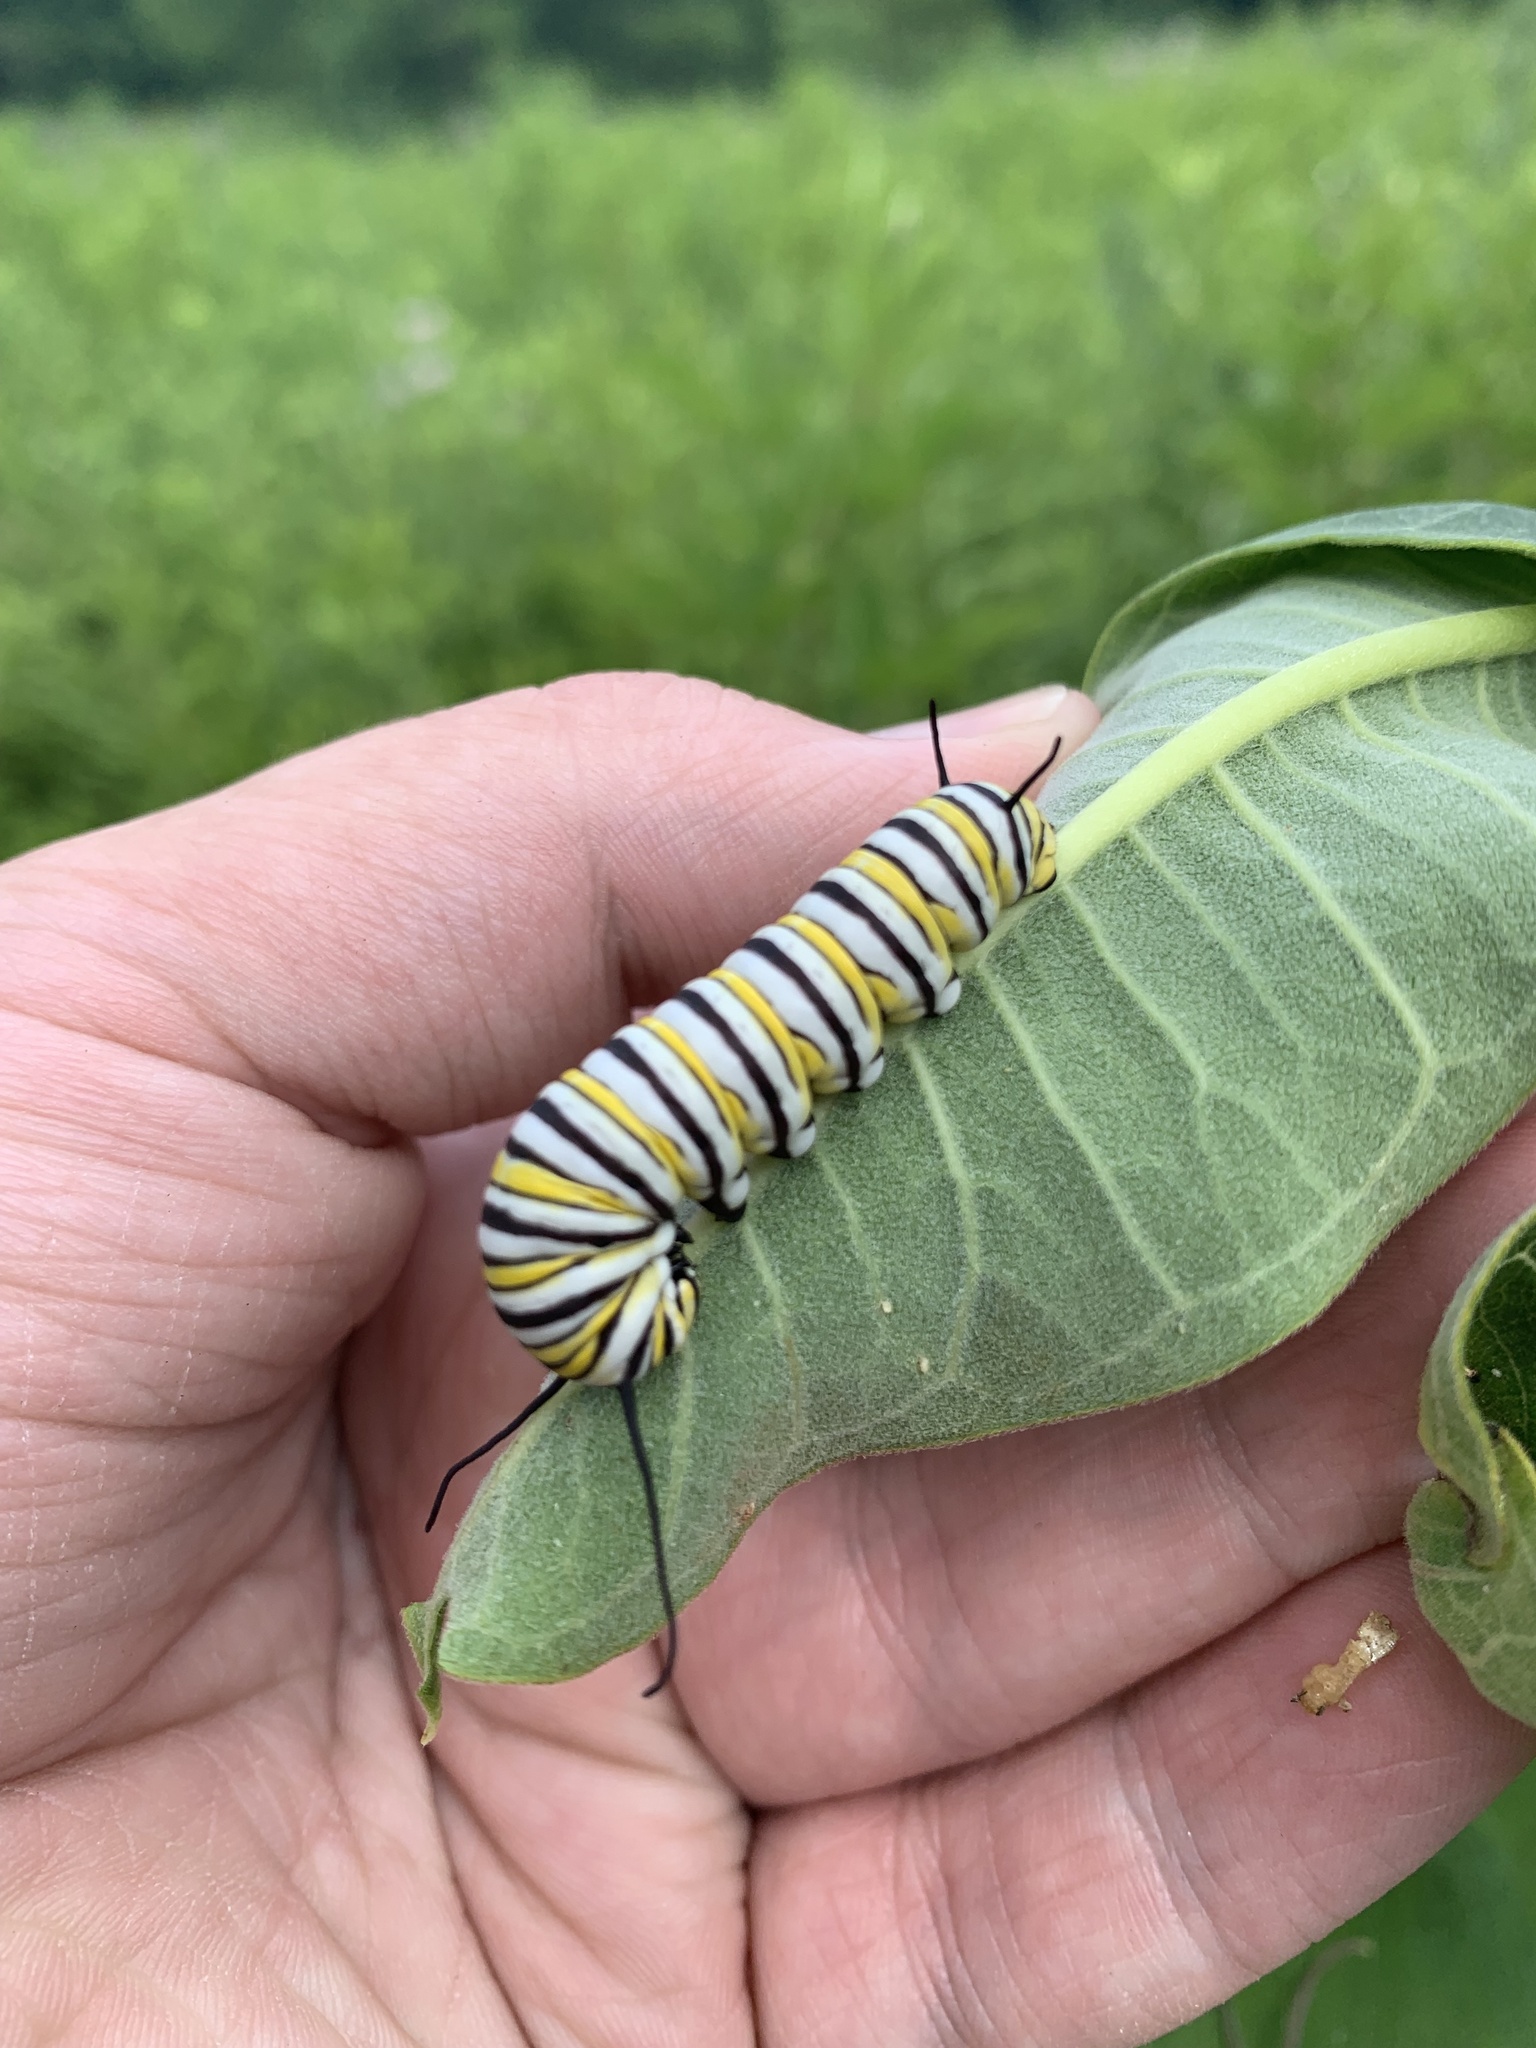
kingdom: Animalia
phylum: Arthropoda
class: Insecta
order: Lepidoptera
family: Nymphalidae
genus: Danaus
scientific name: Danaus plexippus
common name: Monarch
